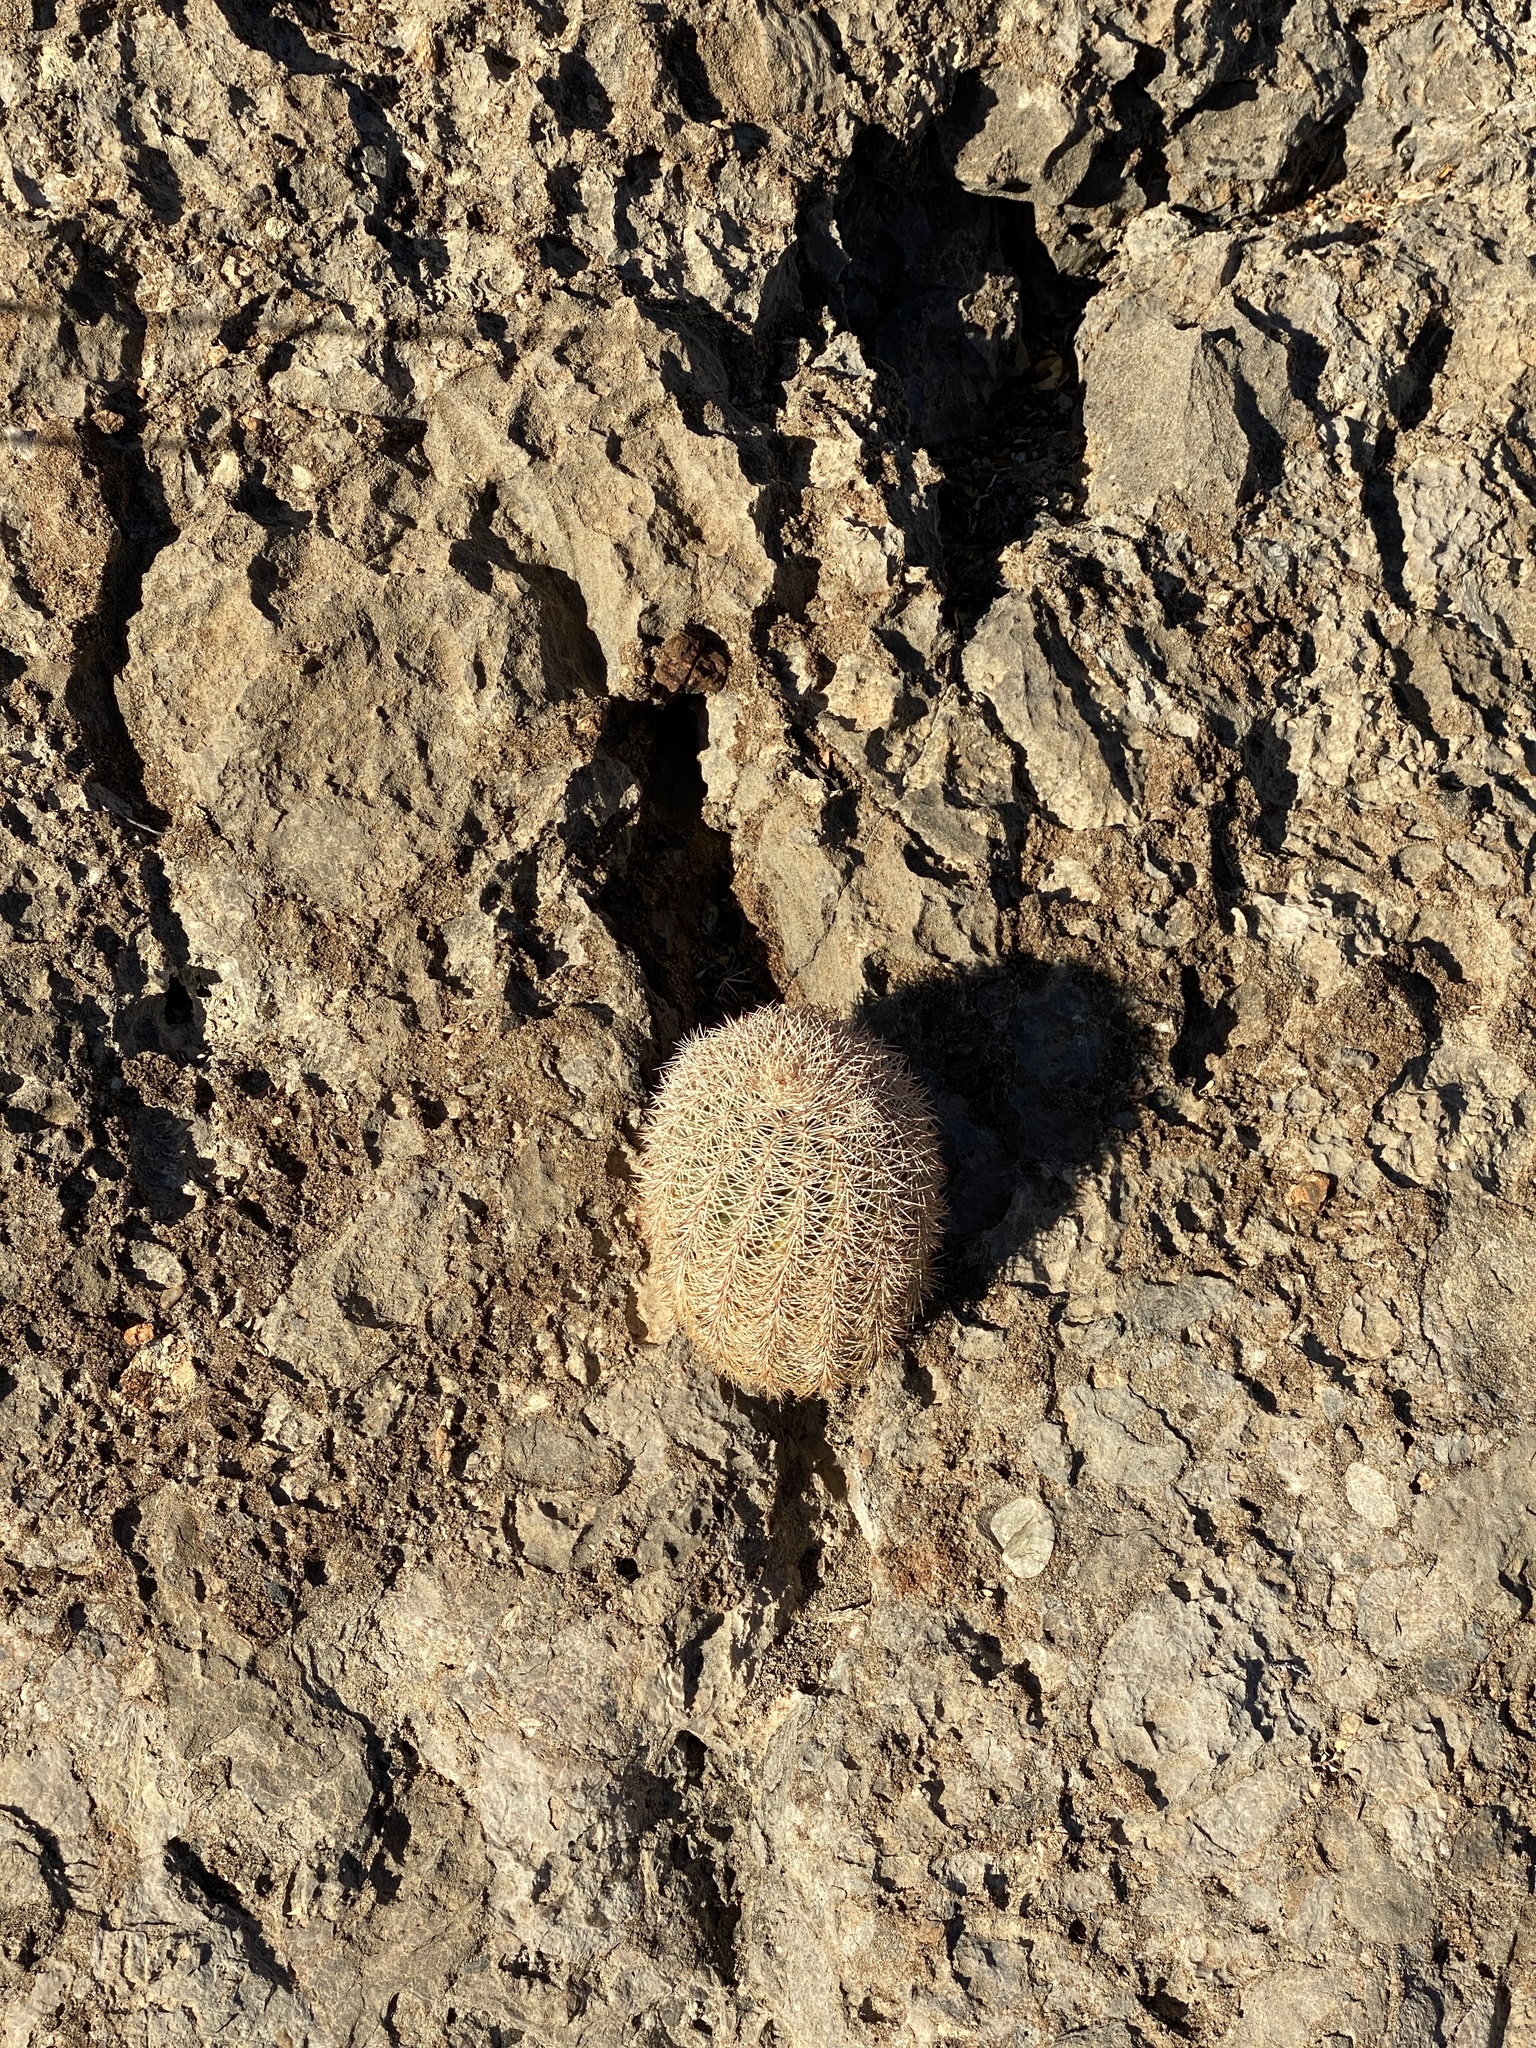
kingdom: Plantae
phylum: Tracheophyta
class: Magnoliopsida
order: Caryophyllales
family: Cactaceae
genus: Echinocereus
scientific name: Echinocereus dasyacanthus
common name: Spiny hedgehog cactus
